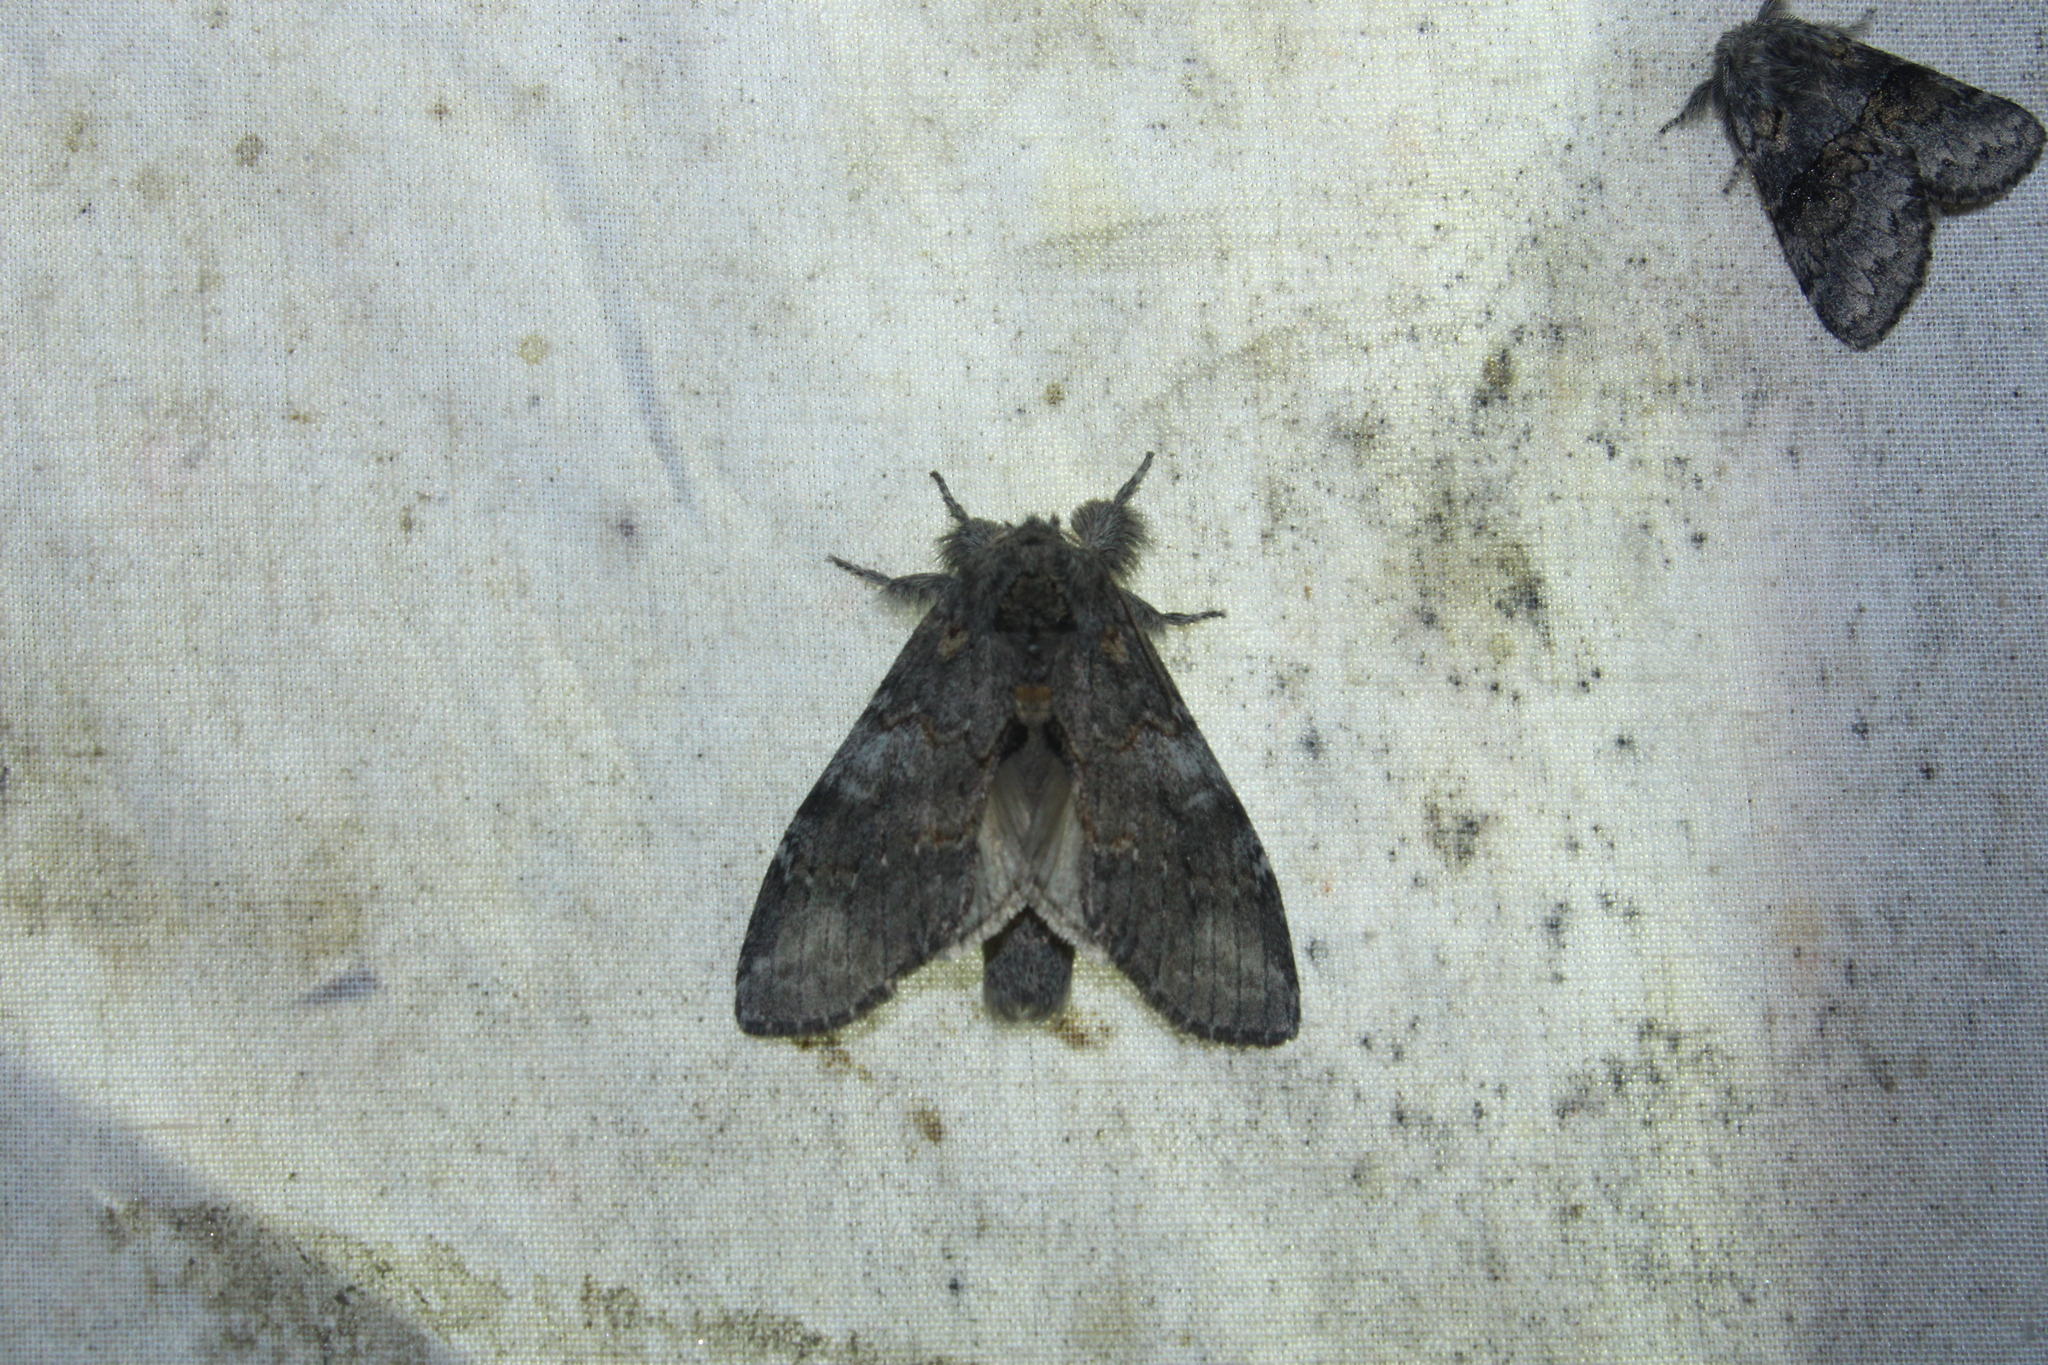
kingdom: Animalia
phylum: Arthropoda
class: Insecta
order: Lepidoptera
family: Notodontidae
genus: Peridea
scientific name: Peridea angulosa
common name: Angulose prominent
